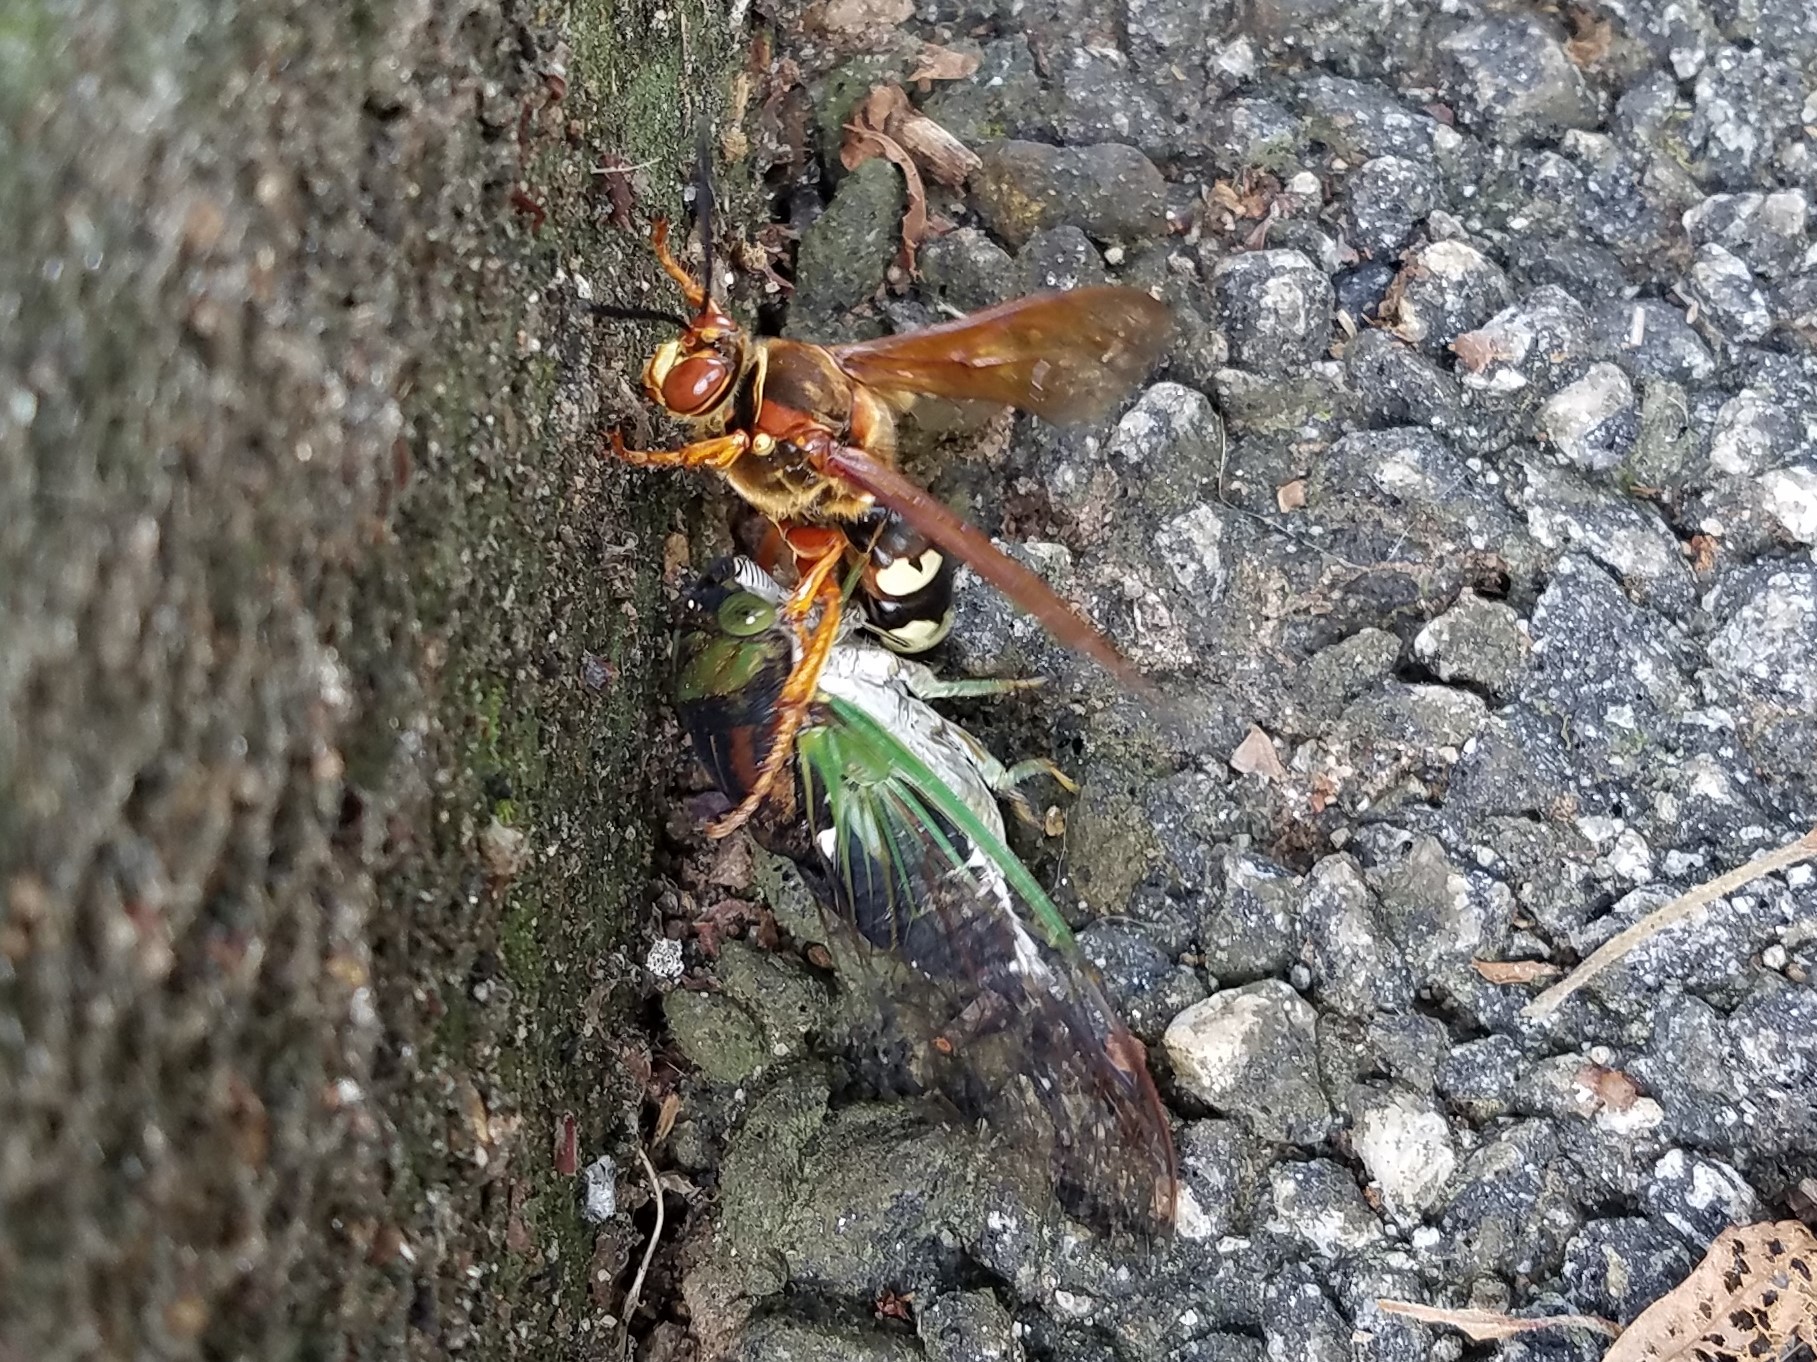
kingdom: Animalia
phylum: Arthropoda
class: Insecta
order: Hemiptera
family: Cicadidae
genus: Neotibicen
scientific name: Neotibicen tibicen
